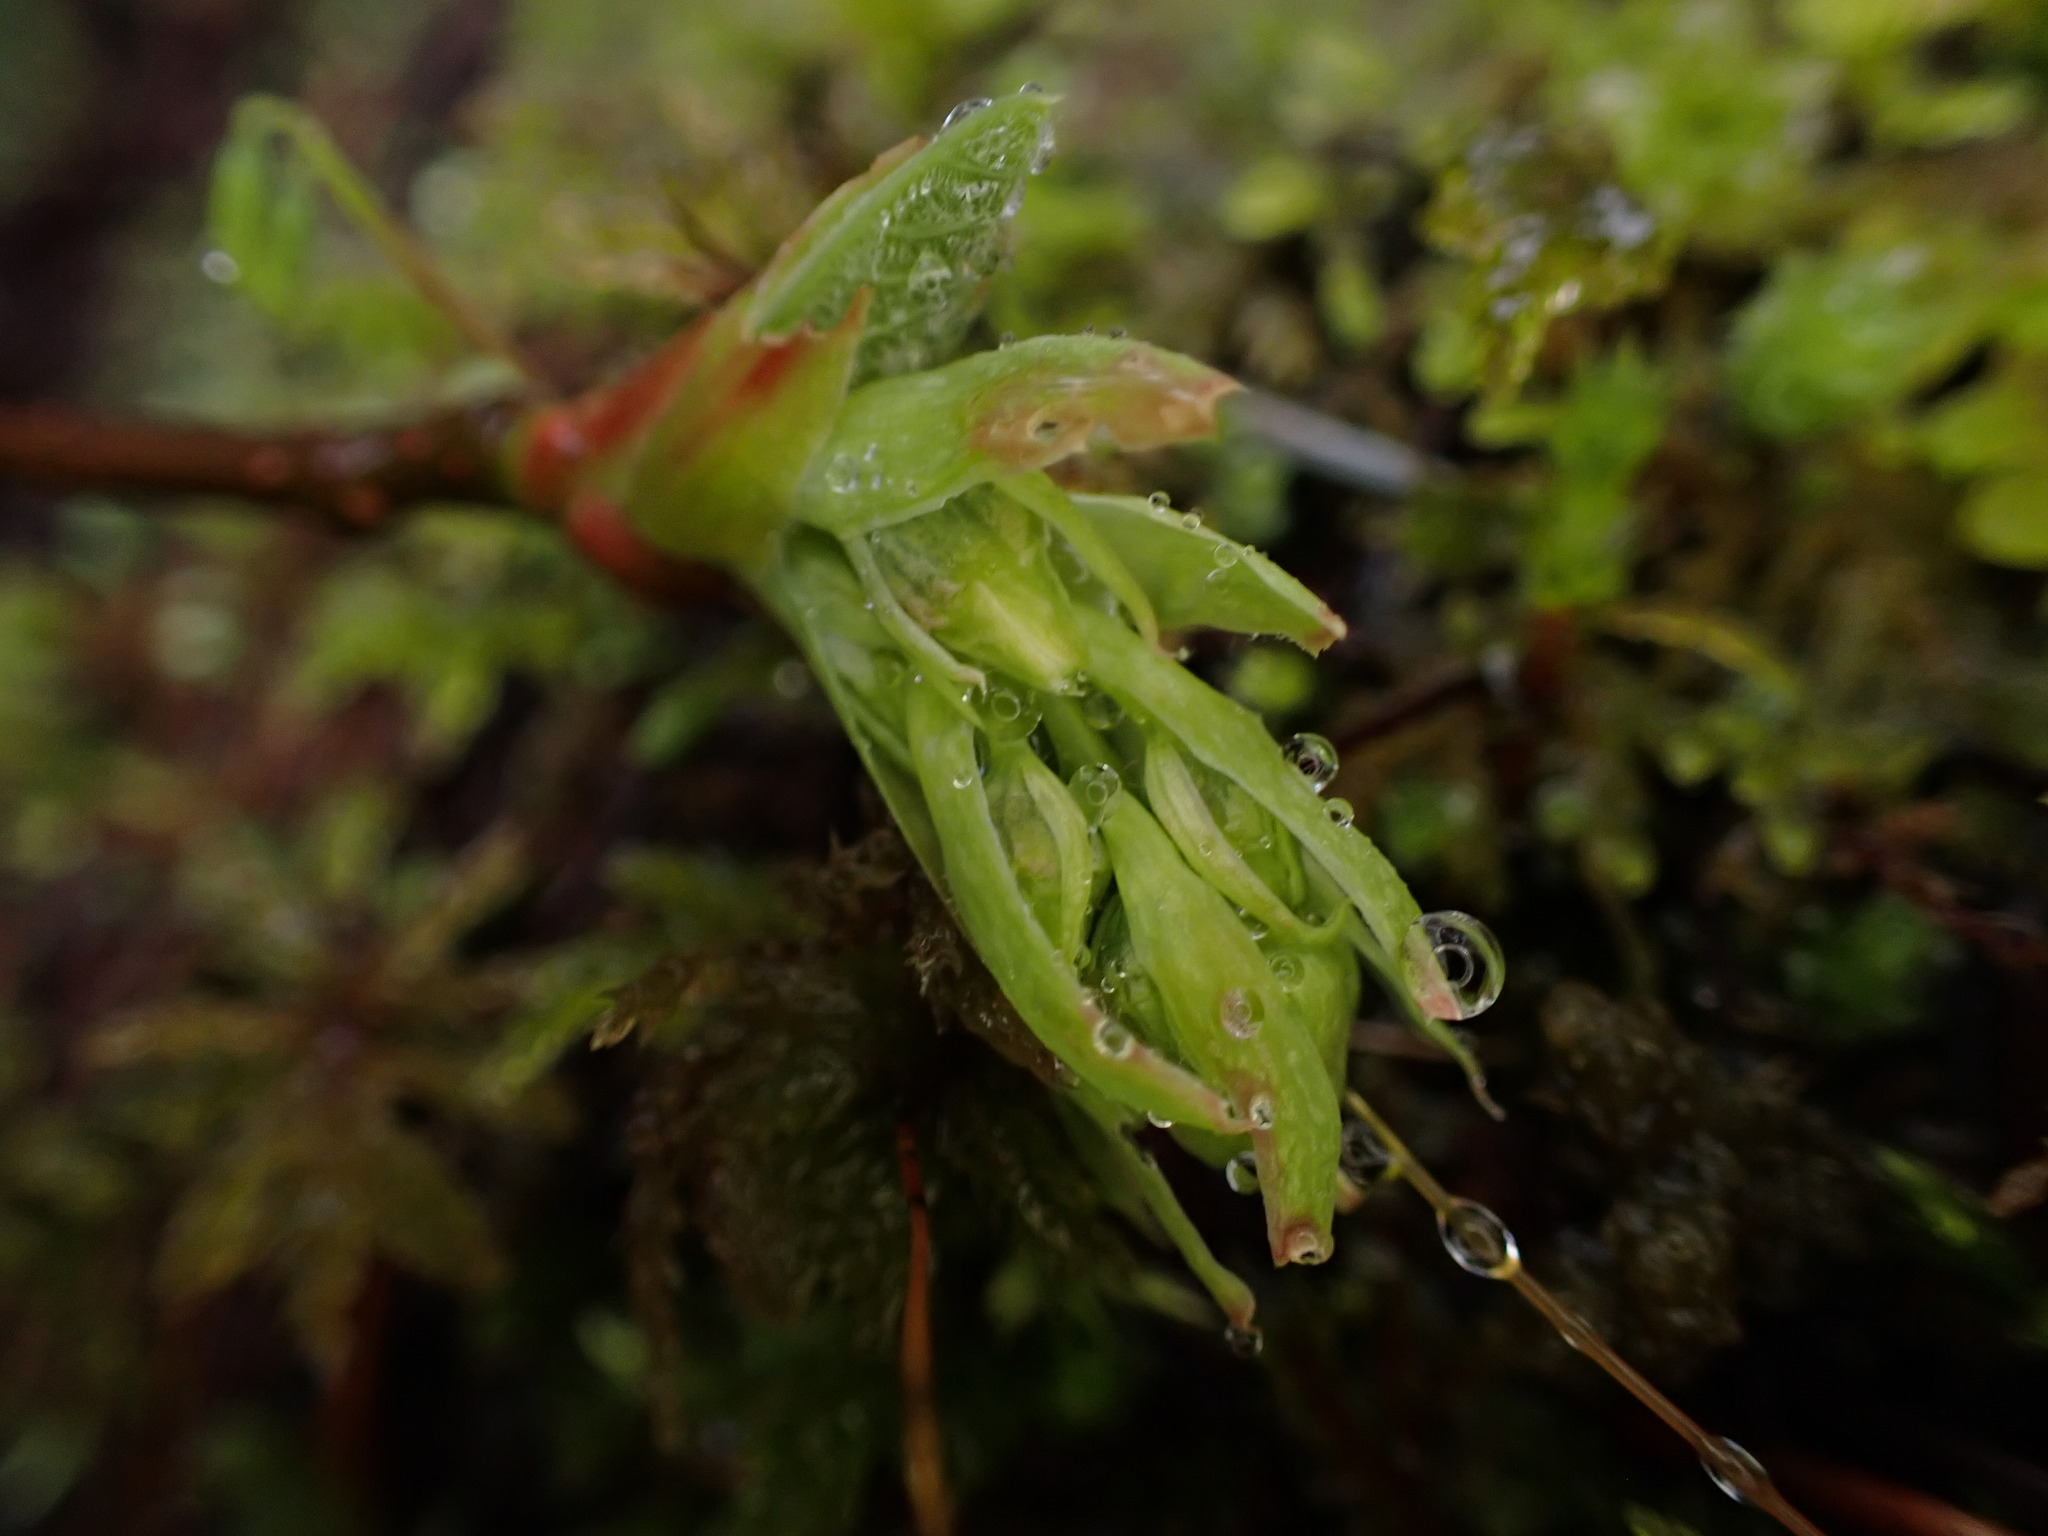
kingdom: Plantae
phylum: Tracheophyta
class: Magnoliopsida
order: Rosales
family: Rosaceae
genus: Oemleria
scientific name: Oemleria cerasiformis
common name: Osoberry
